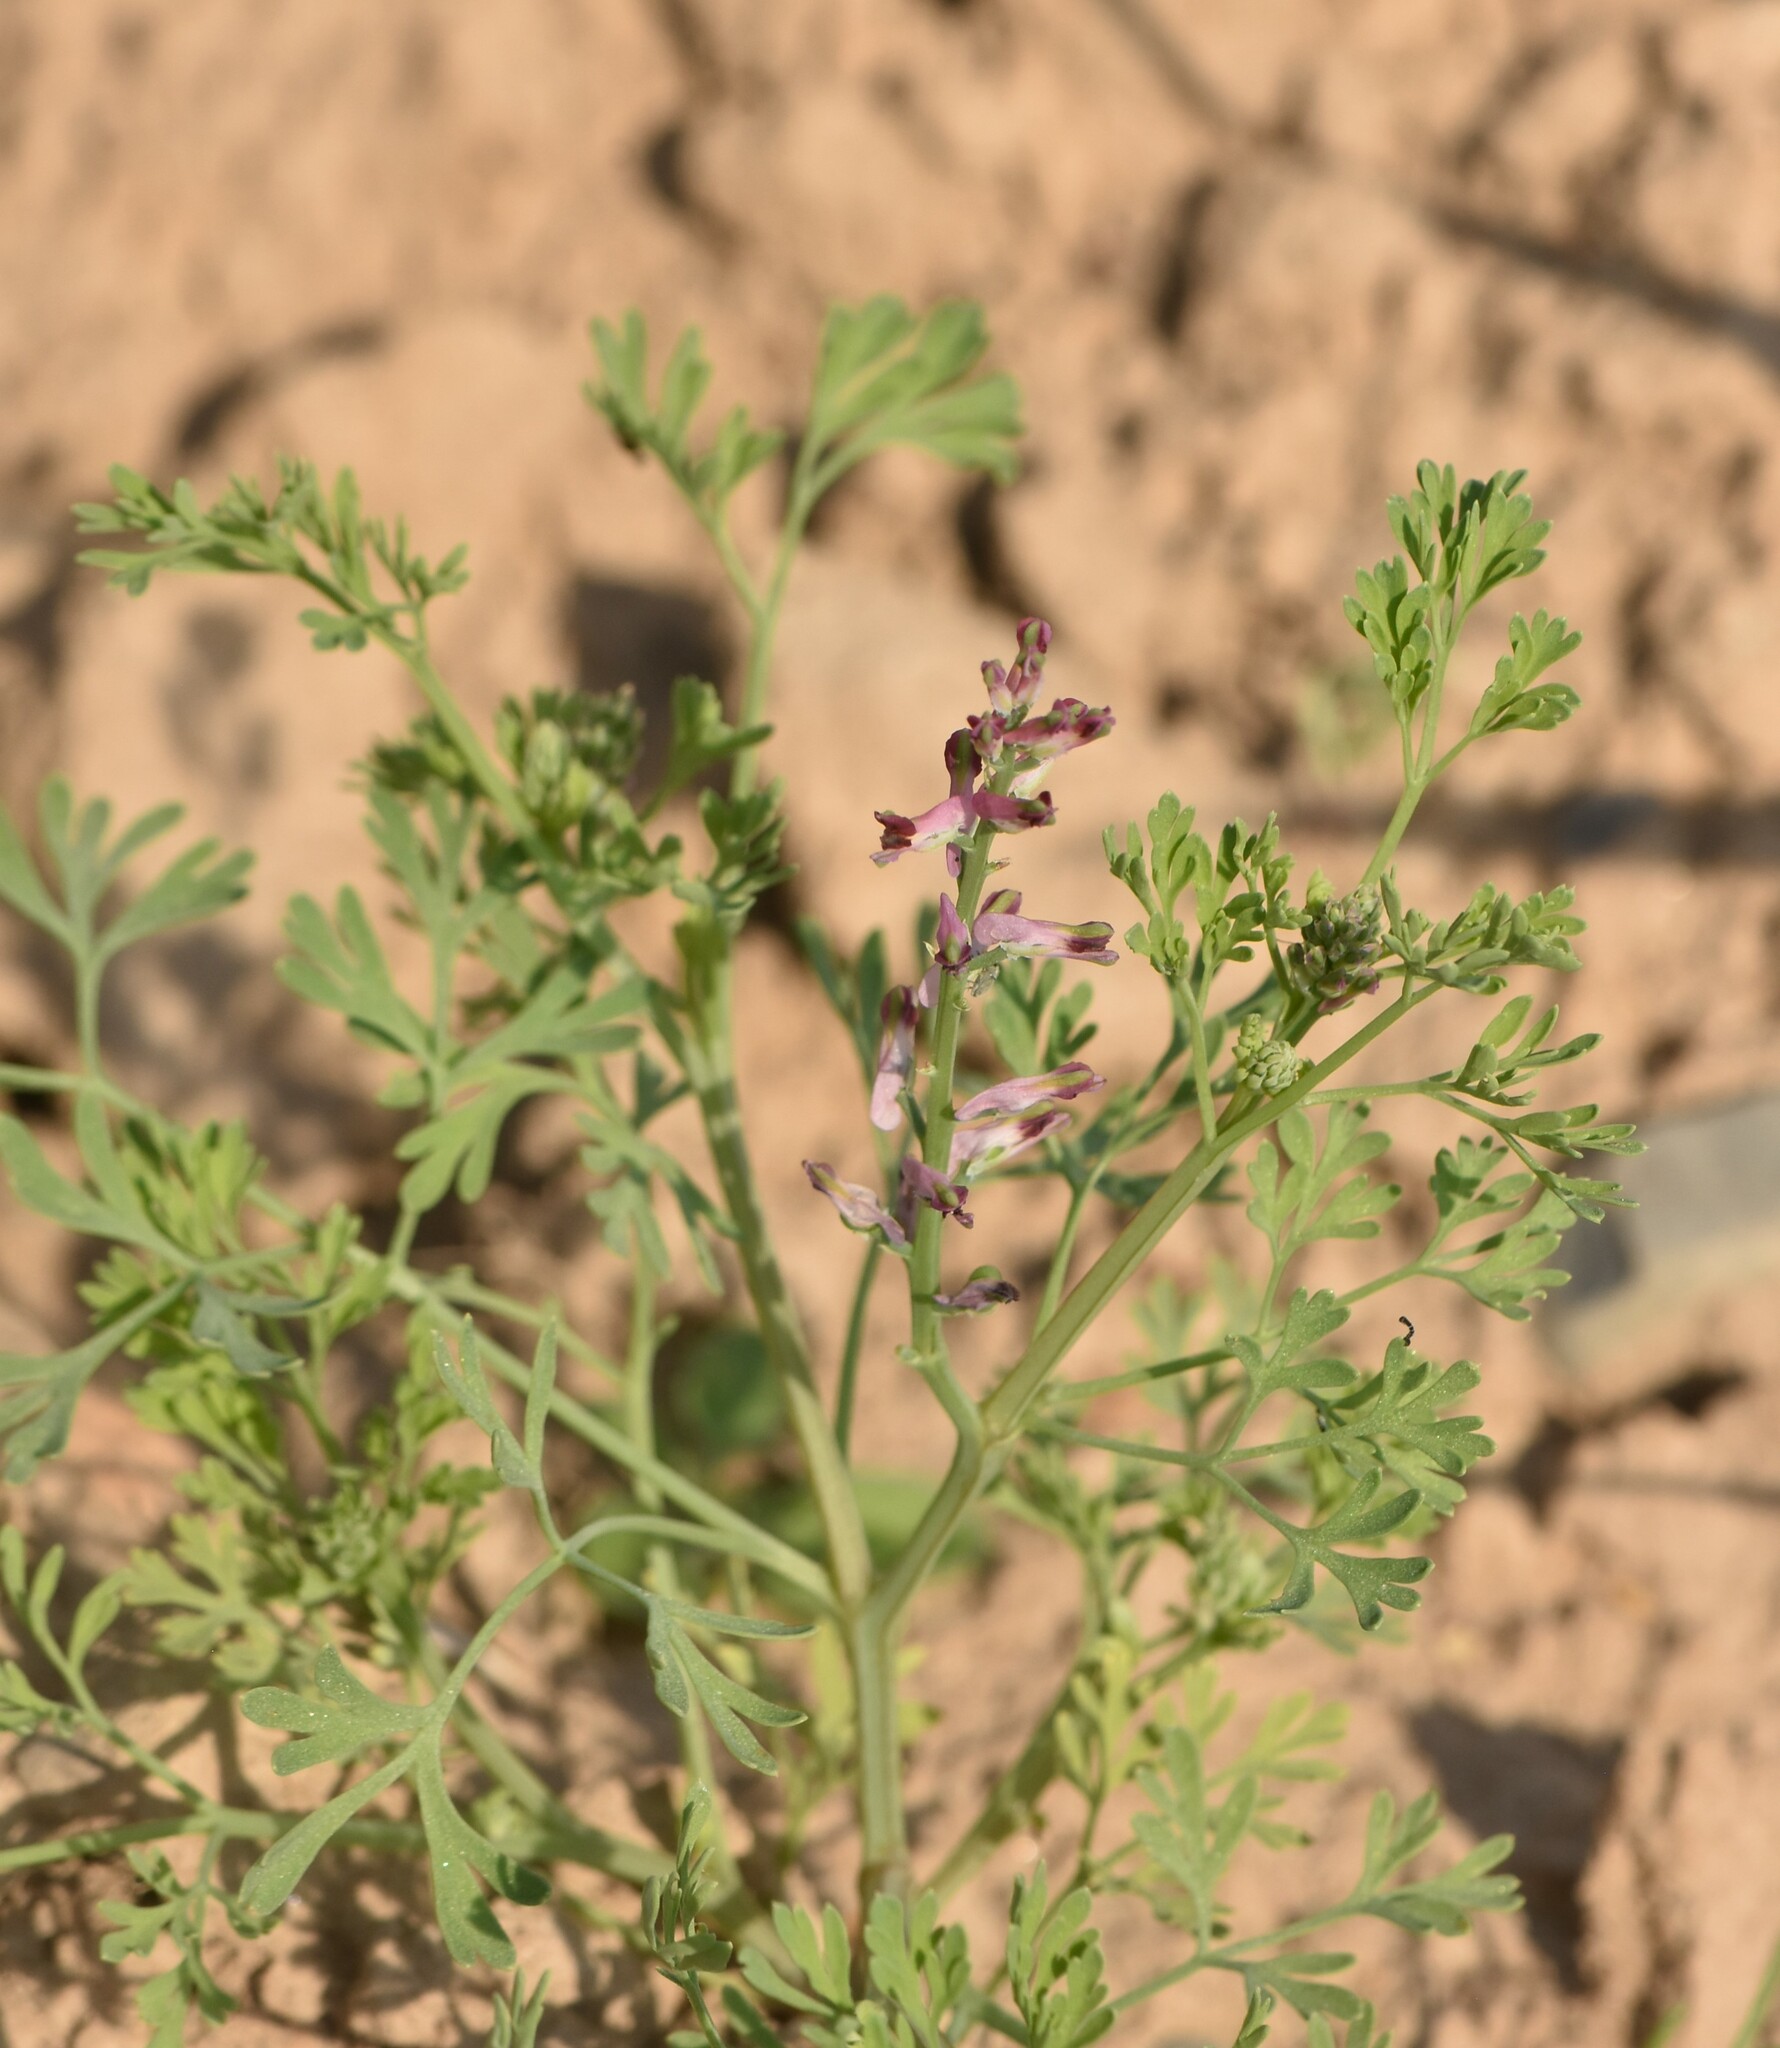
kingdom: Plantae
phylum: Tracheophyta
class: Magnoliopsida
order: Ranunculales
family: Papaveraceae
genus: Fumaria
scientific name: Fumaria officinalis
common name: Common fumitory
